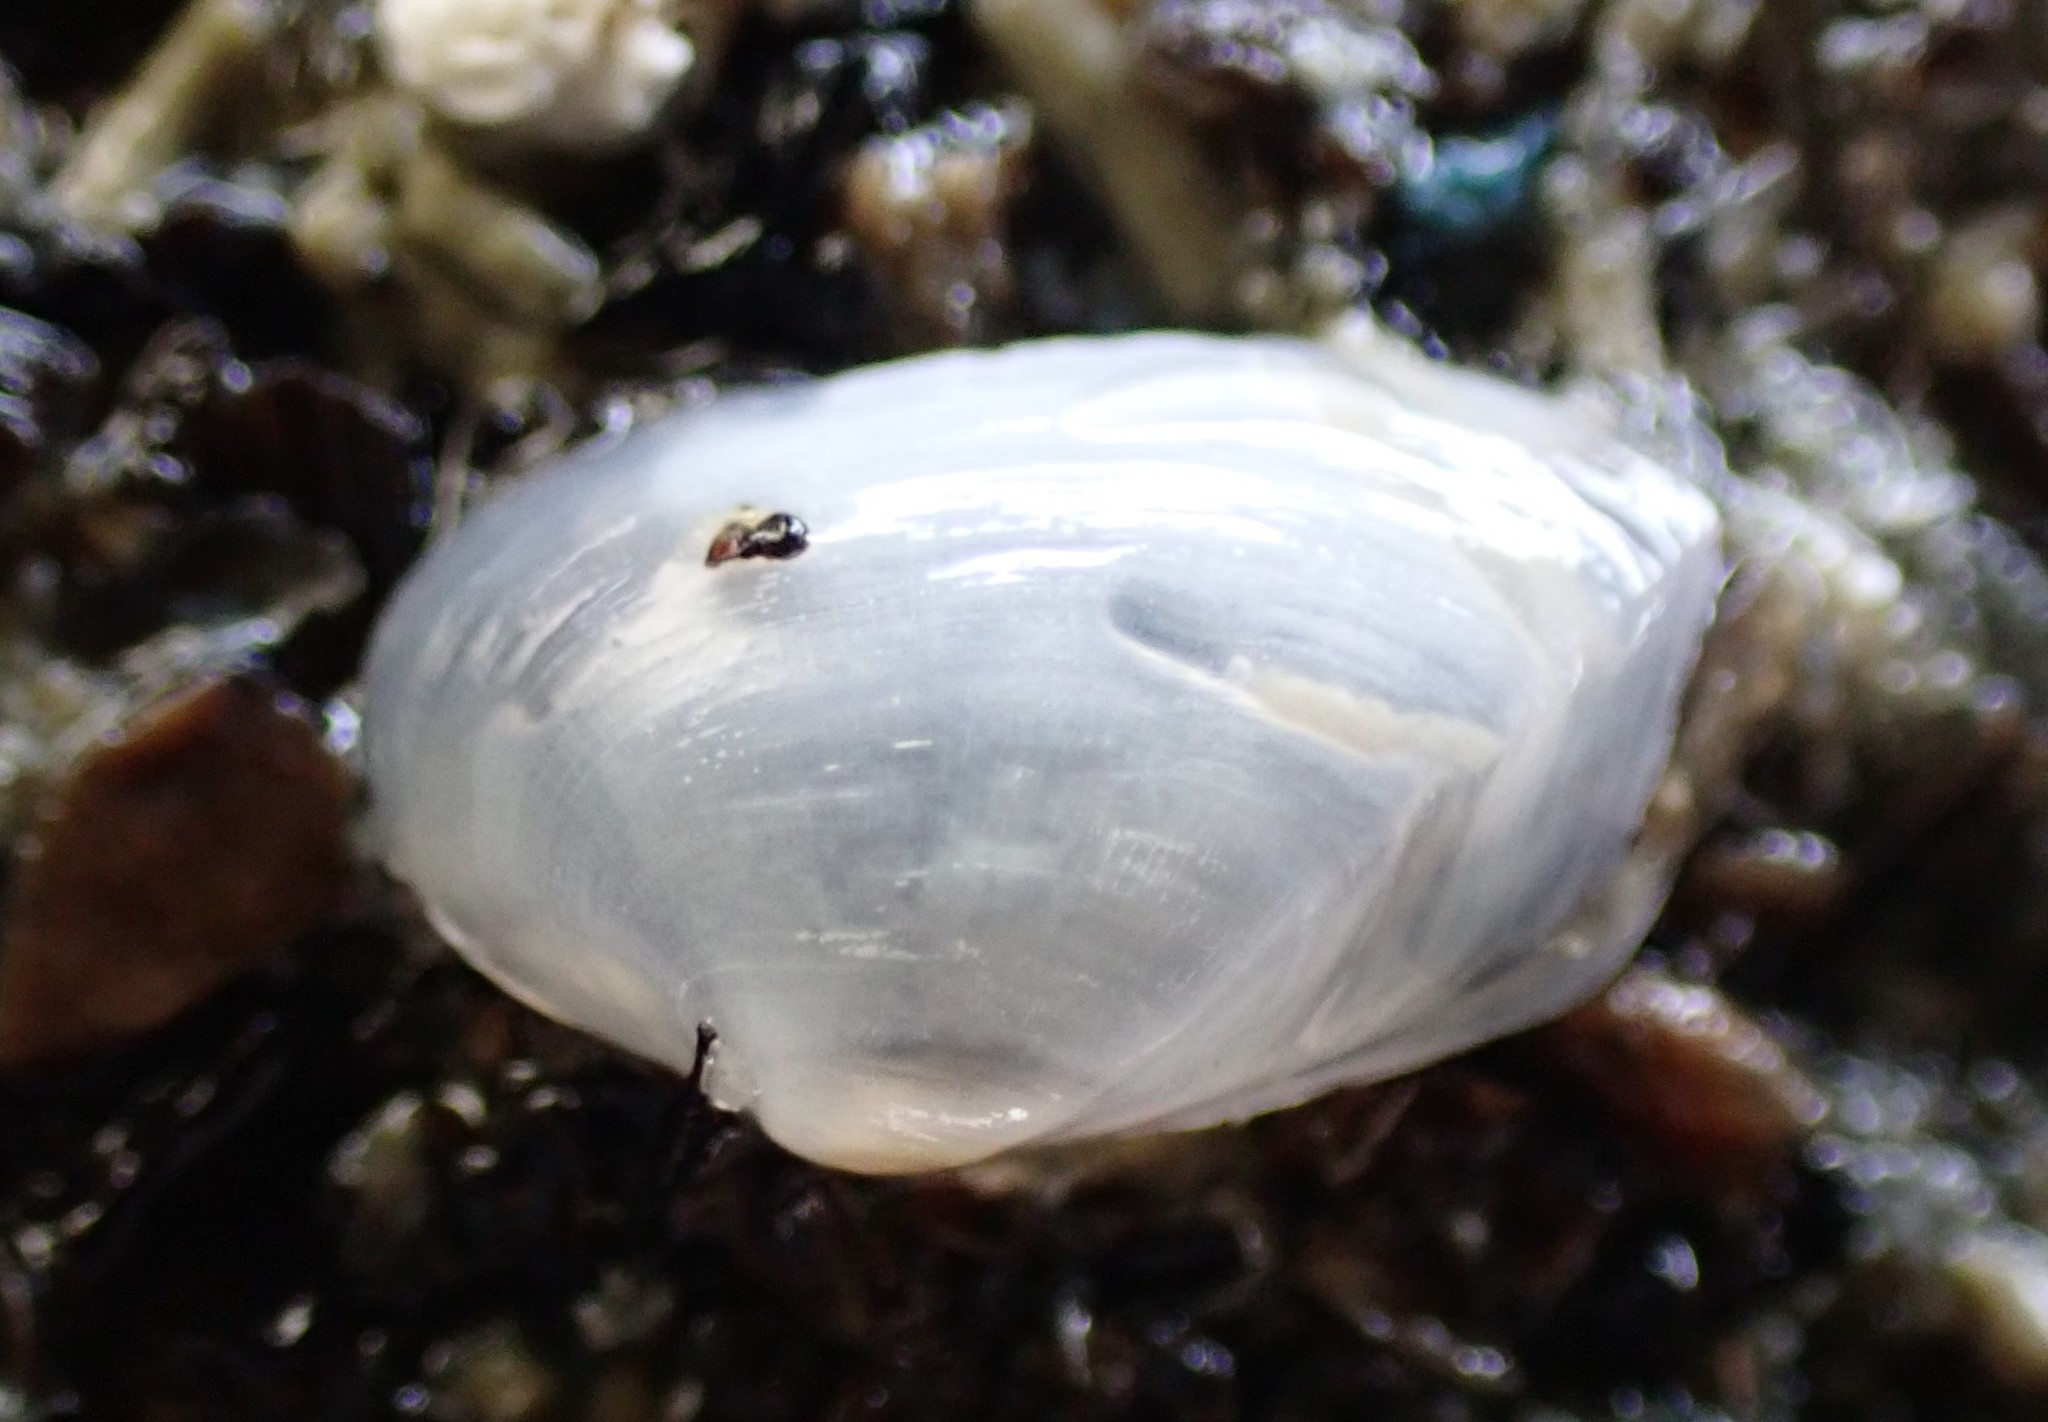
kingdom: Animalia
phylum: Mollusca
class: Bivalvia
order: Myida
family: Corbulidae
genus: Corbula
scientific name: Corbula zelandica
